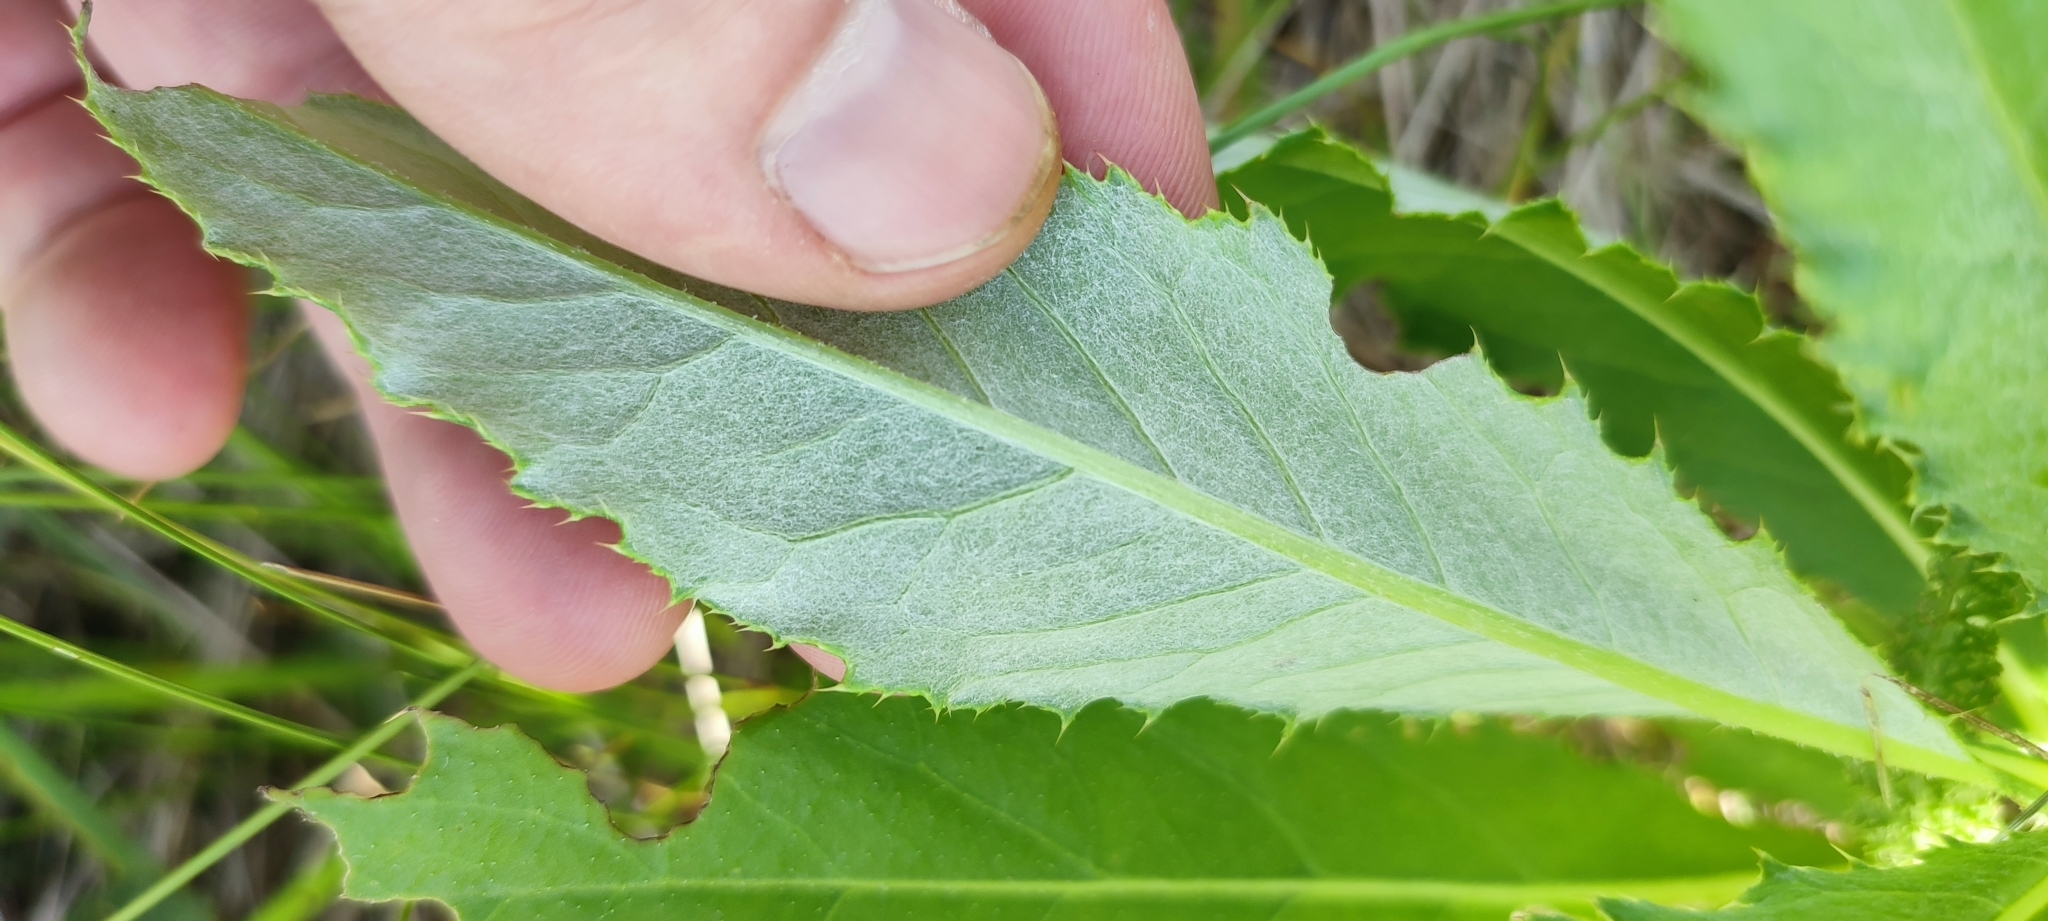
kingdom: Plantae
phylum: Tracheophyta
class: Magnoliopsida
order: Asterales
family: Asteraceae
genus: Cirsium
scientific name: Cirsium arvense
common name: Creeping thistle
